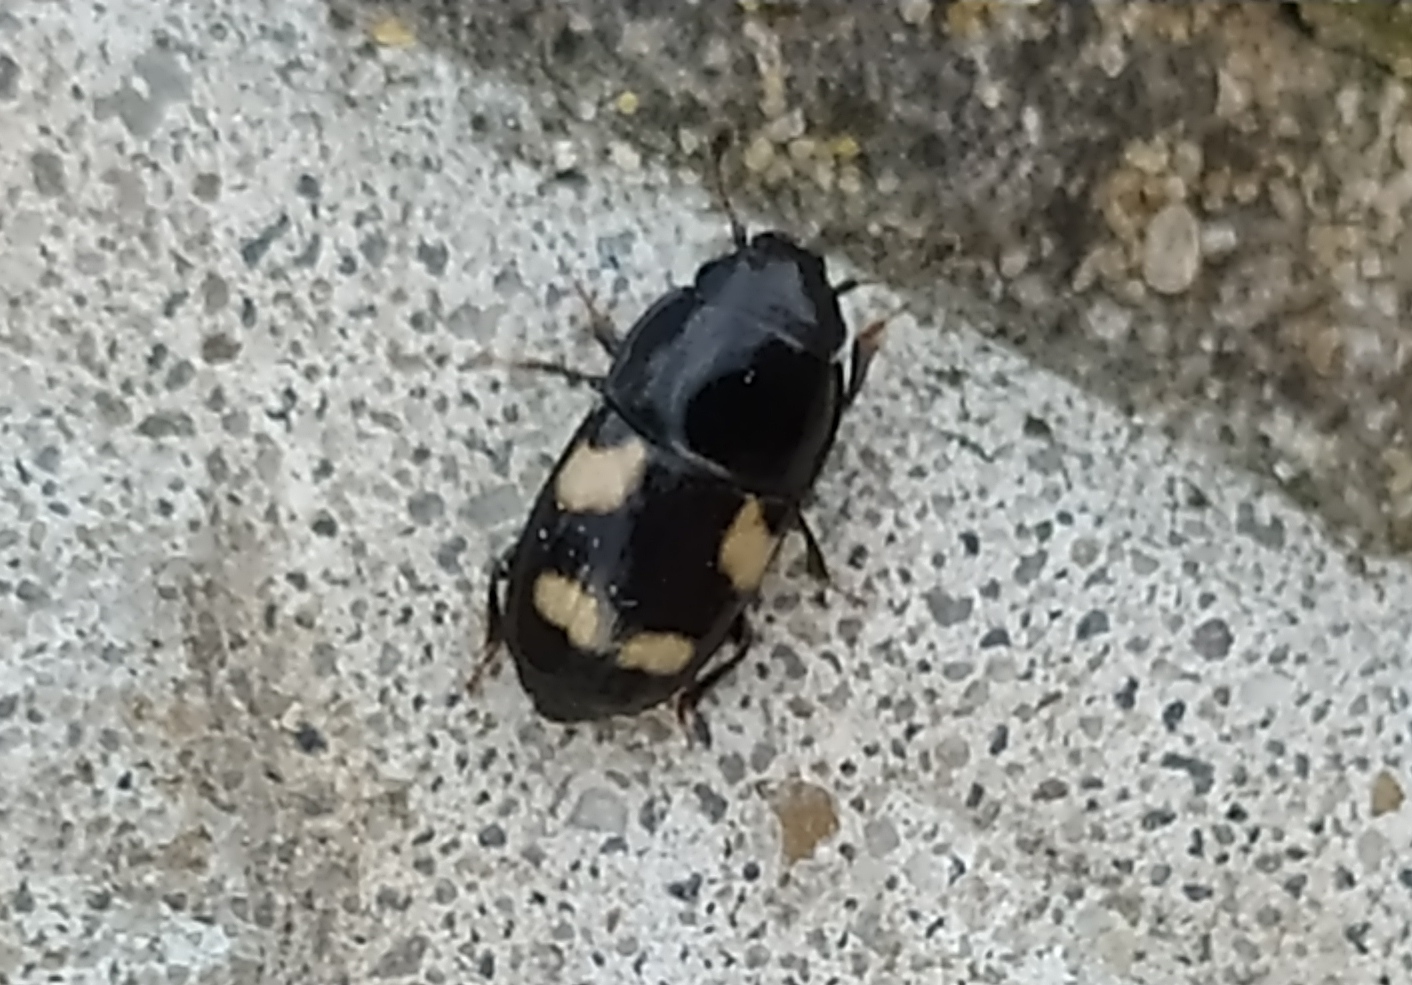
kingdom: Animalia
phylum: Arthropoda
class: Insecta
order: Coleoptera
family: Nitidulidae
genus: Glischrochilus
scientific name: Glischrochilus quadrisignatus
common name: Picnic beetle
